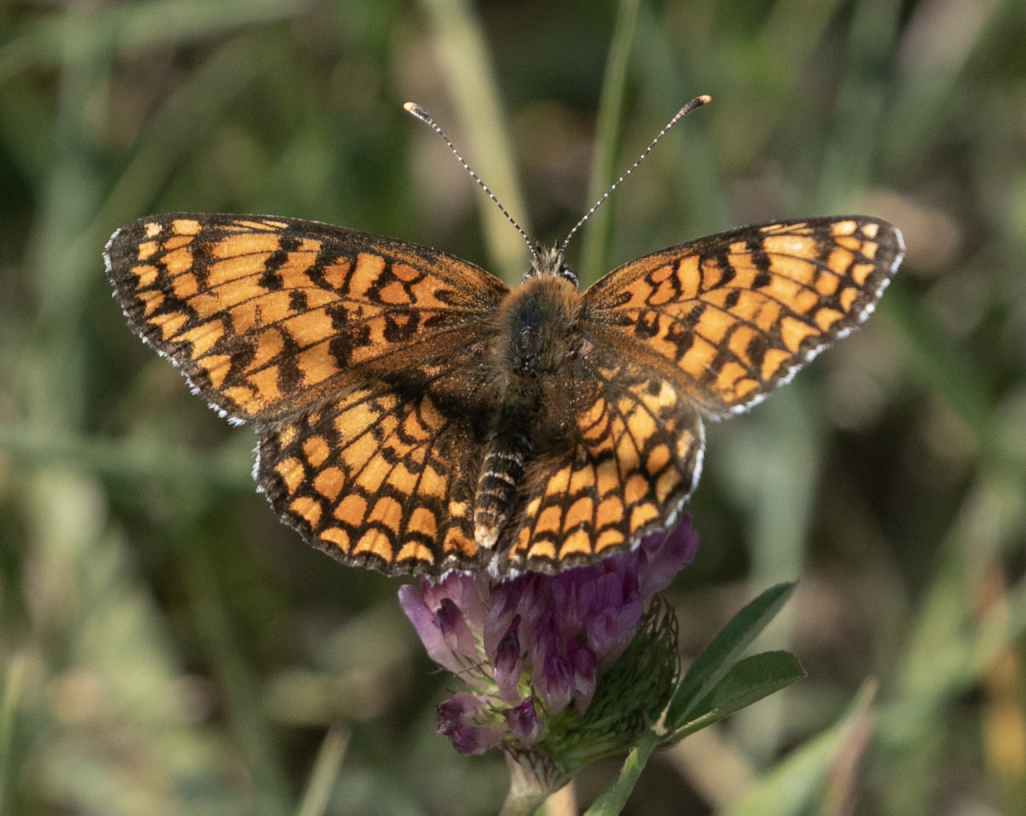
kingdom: Animalia
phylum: Arthropoda
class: Insecta
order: Lepidoptera
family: Nymphalidae
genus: Melitaea
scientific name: Melitaea phoebe
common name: Knapweed fritillary
